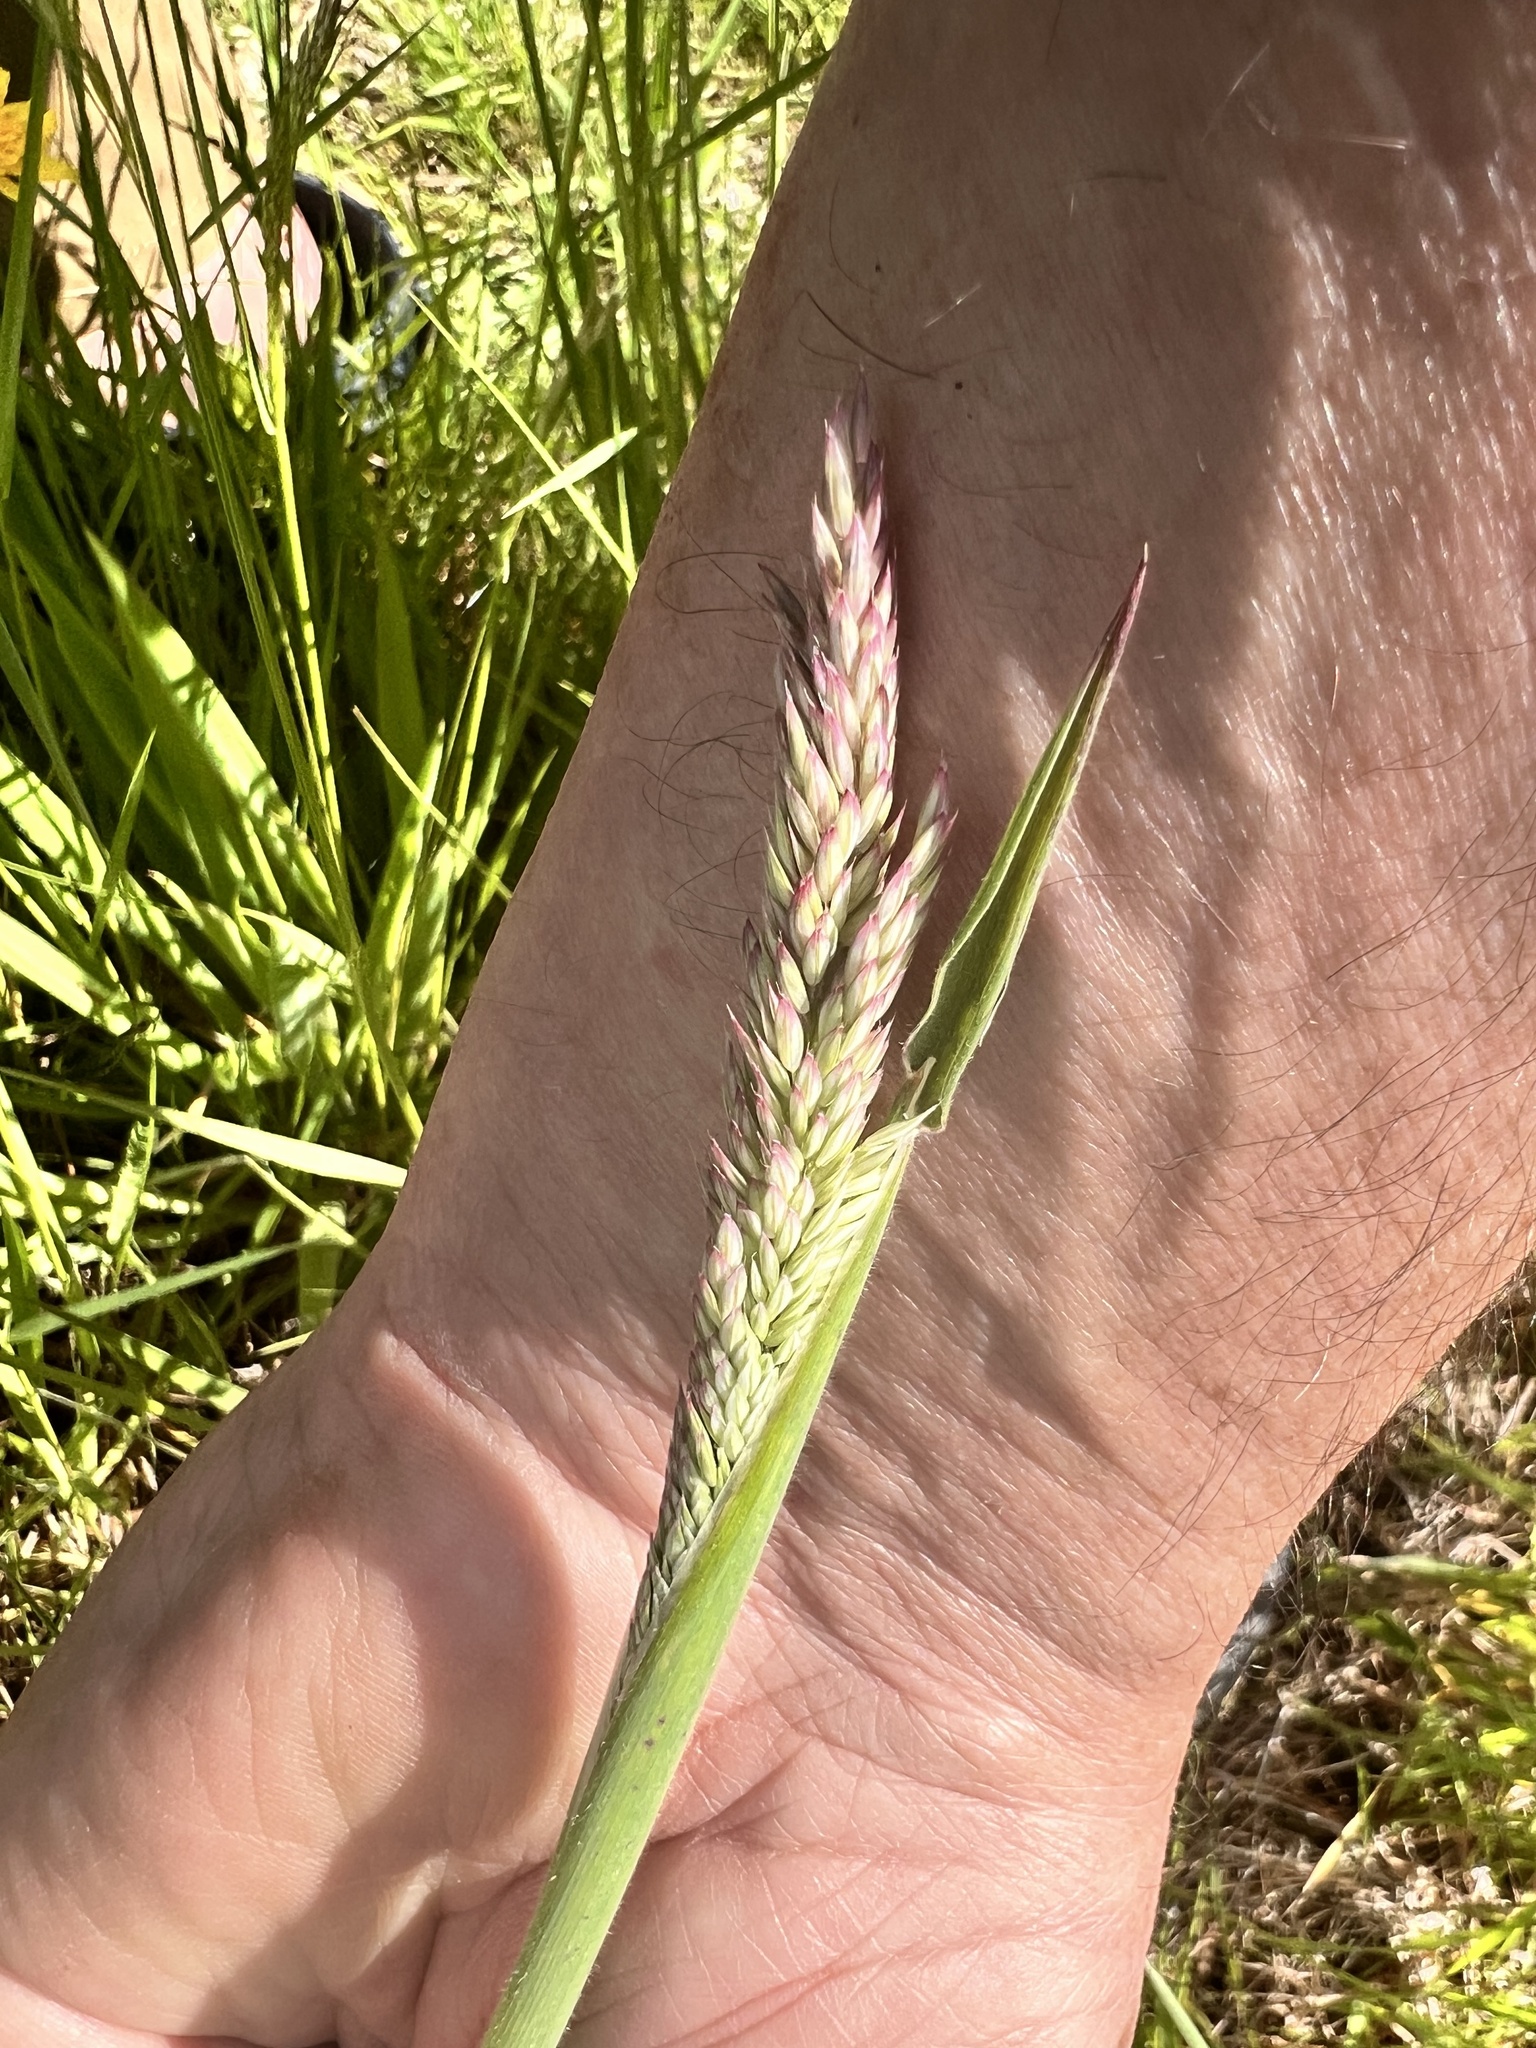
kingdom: Plantae
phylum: Tracheophyta
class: Liliopsida
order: Poales
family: Poaceae
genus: Holcus
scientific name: Holcus lanatus
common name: Yorkshire-fog
